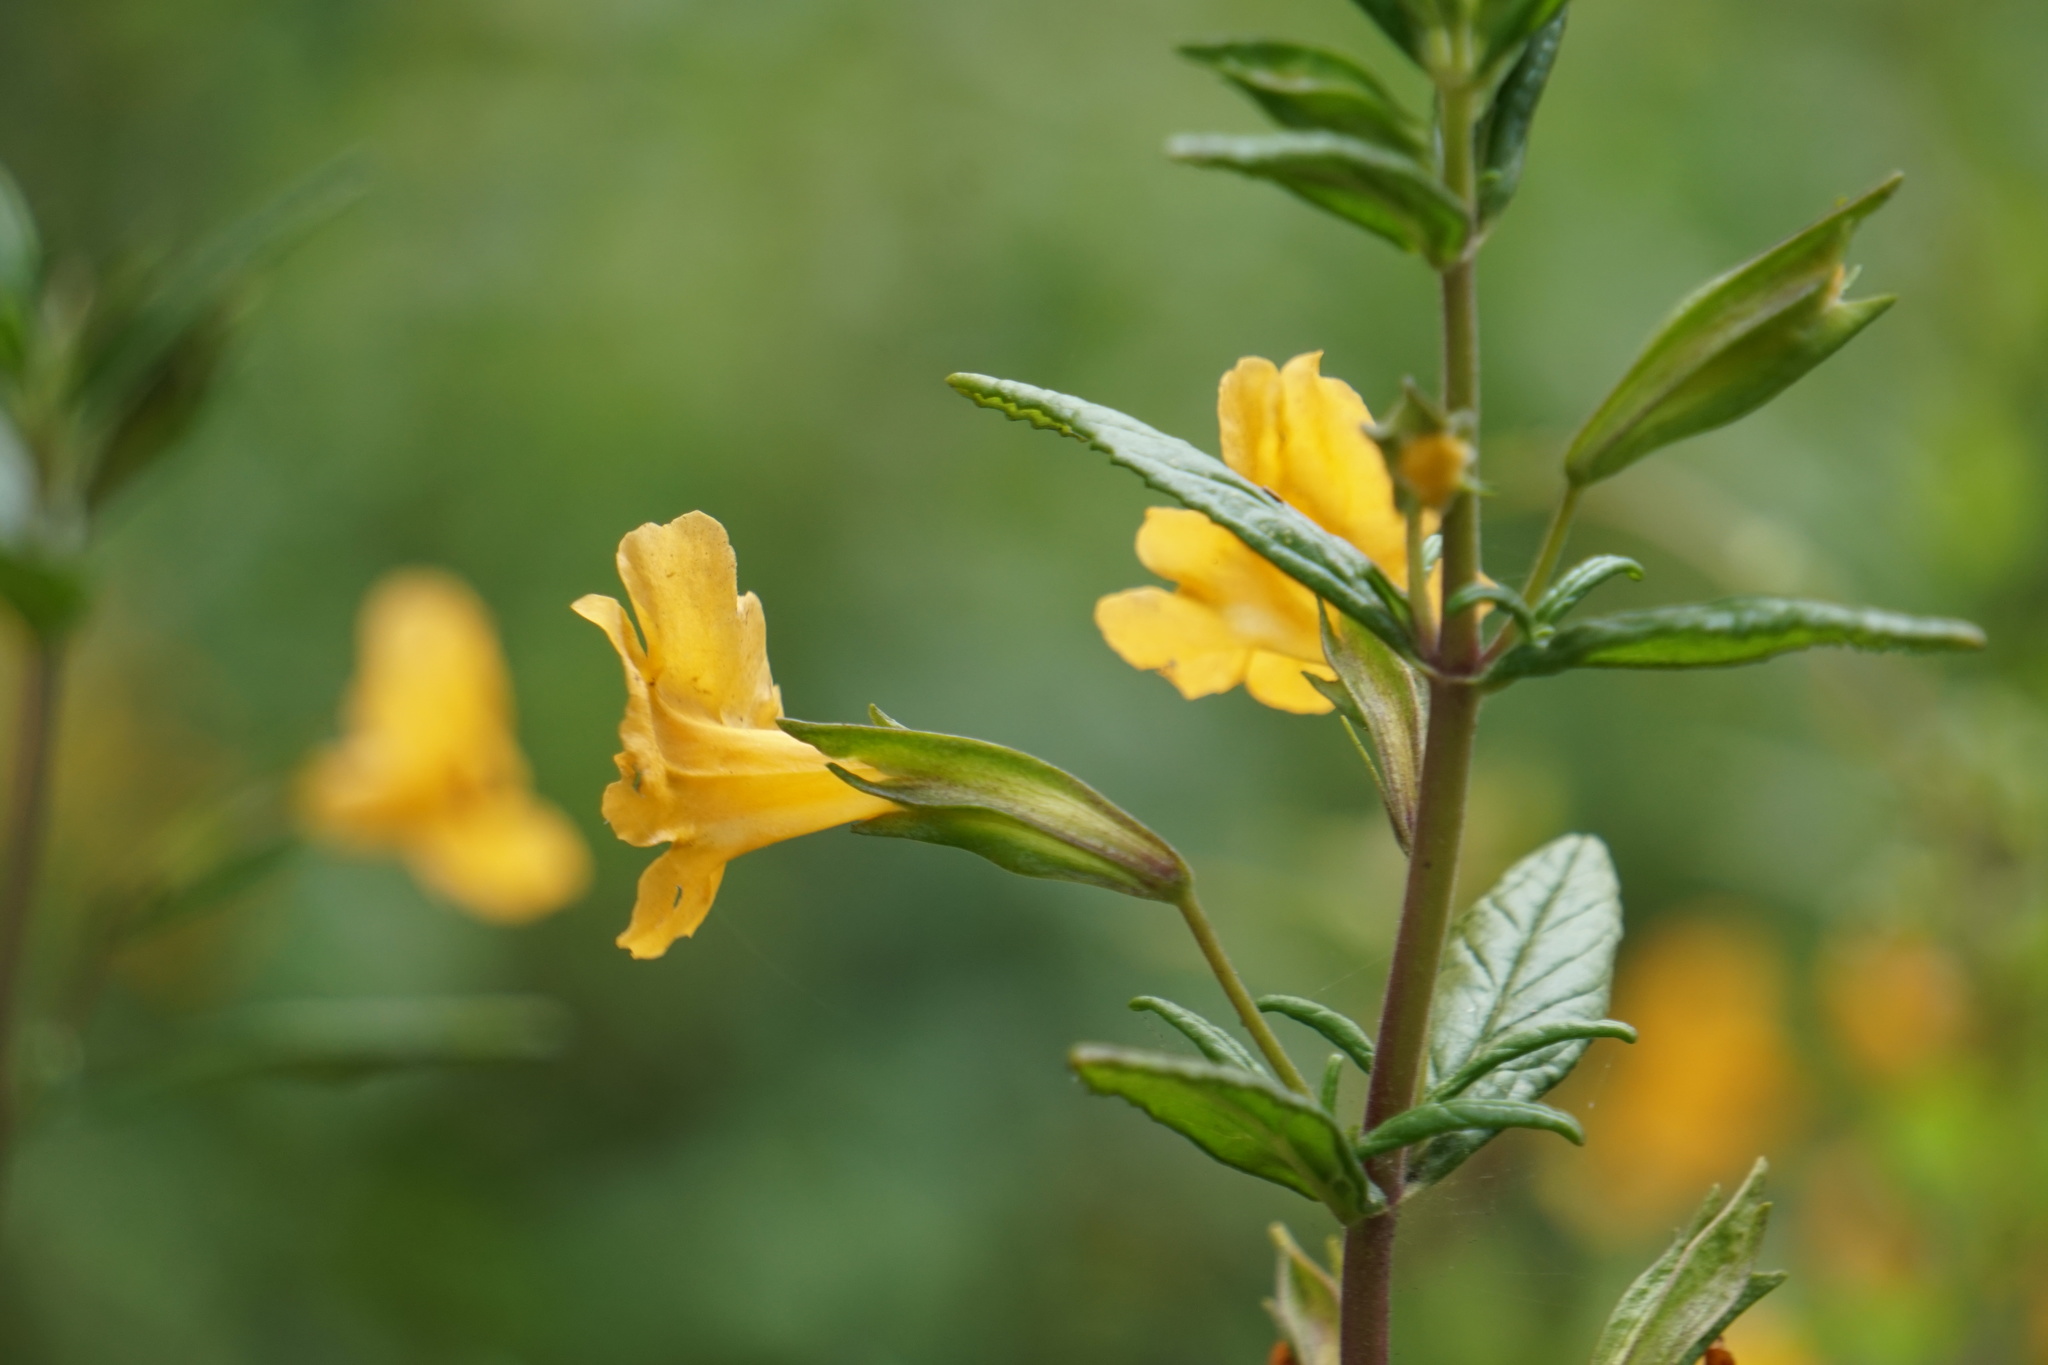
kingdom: Plantae
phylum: Tracheophyta
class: Magnoliopsida
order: Lamiales
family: Phrymaceae
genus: Diplacus
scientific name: Diplacus aurantiacus
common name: Bush monkey-flower
